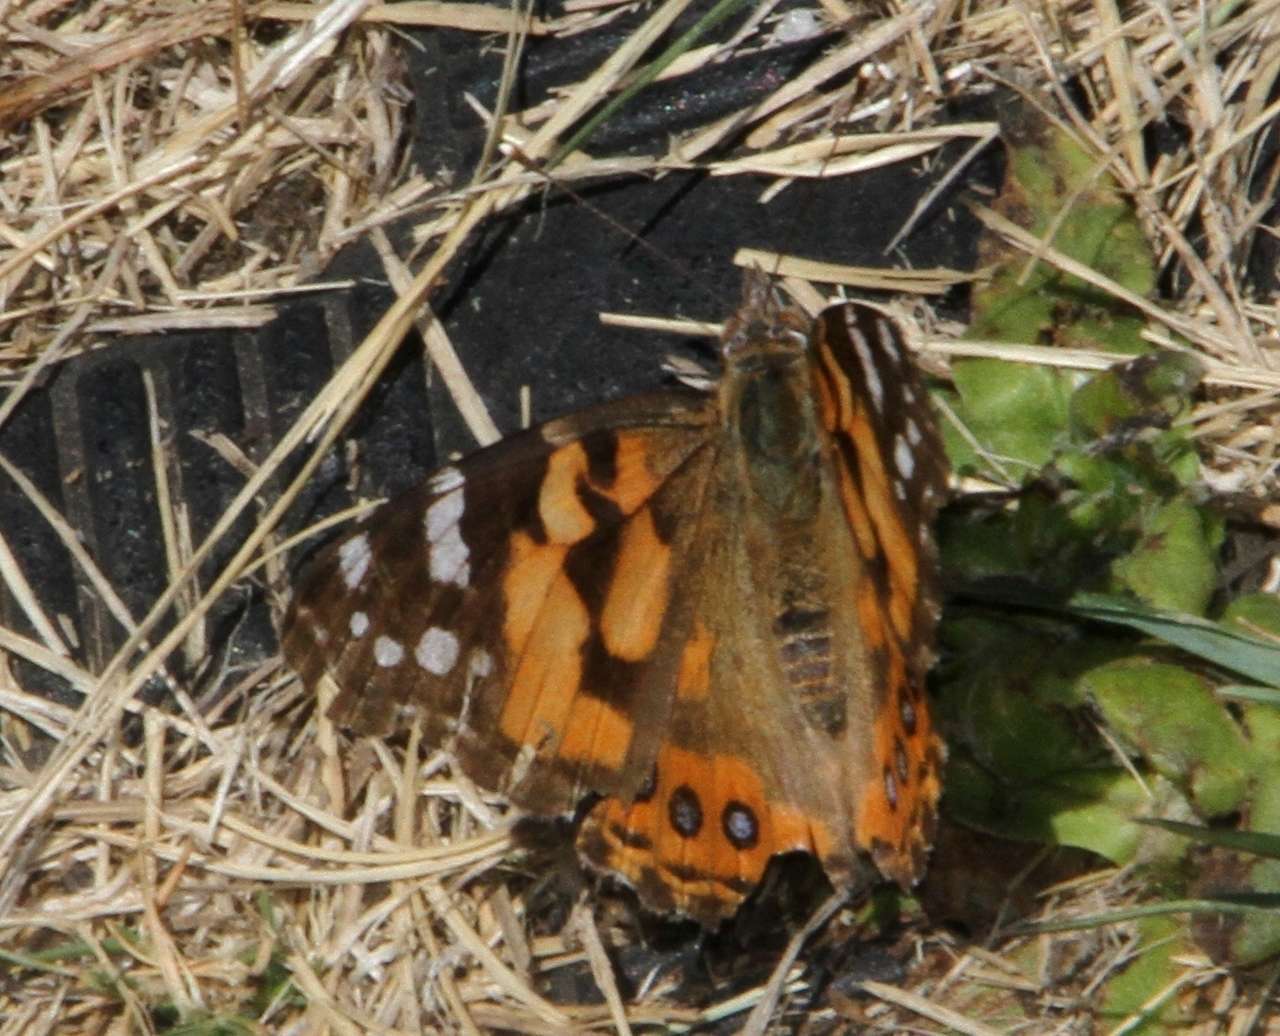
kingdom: Animalia
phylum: Arthropoda
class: Insecta
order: Lepidoptera
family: Nymphalidae
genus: Vanessa
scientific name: Vanessa kershawi
